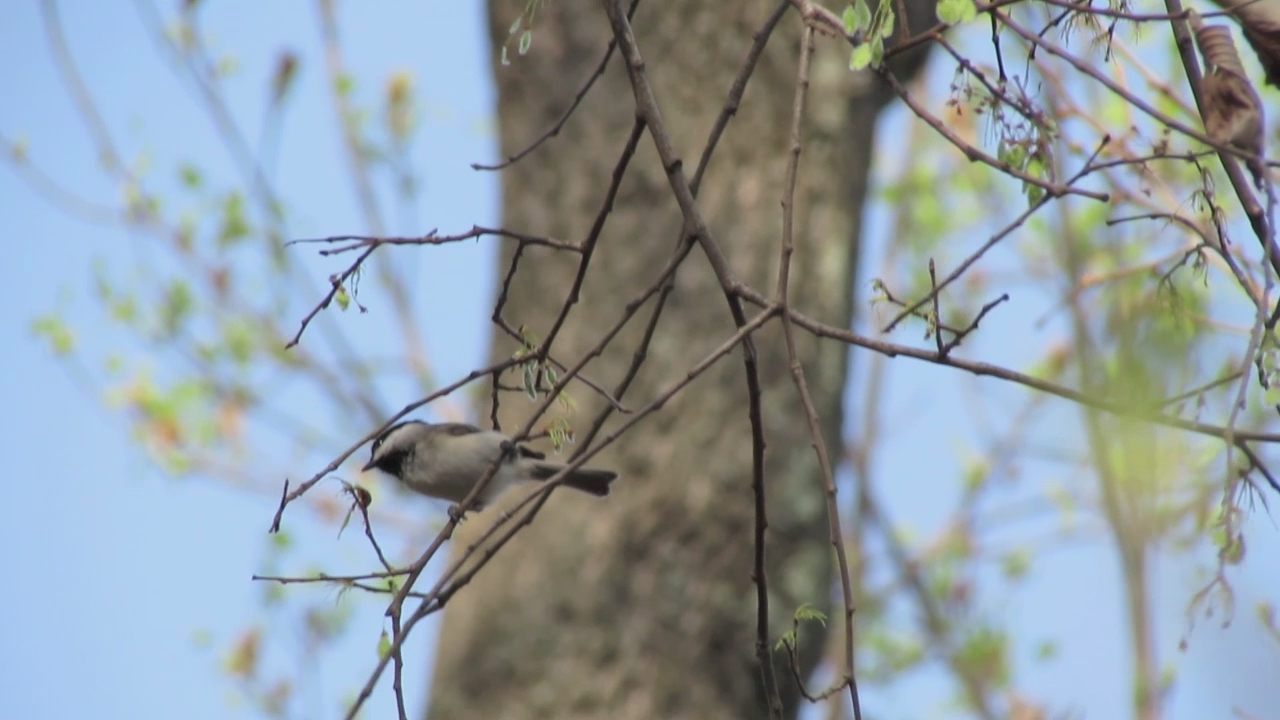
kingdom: Animalia
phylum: Chordata
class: Aves
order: Passeriformes
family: Paridae
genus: Poecile
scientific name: Poecile carolinensis
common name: Carolina chickadee
